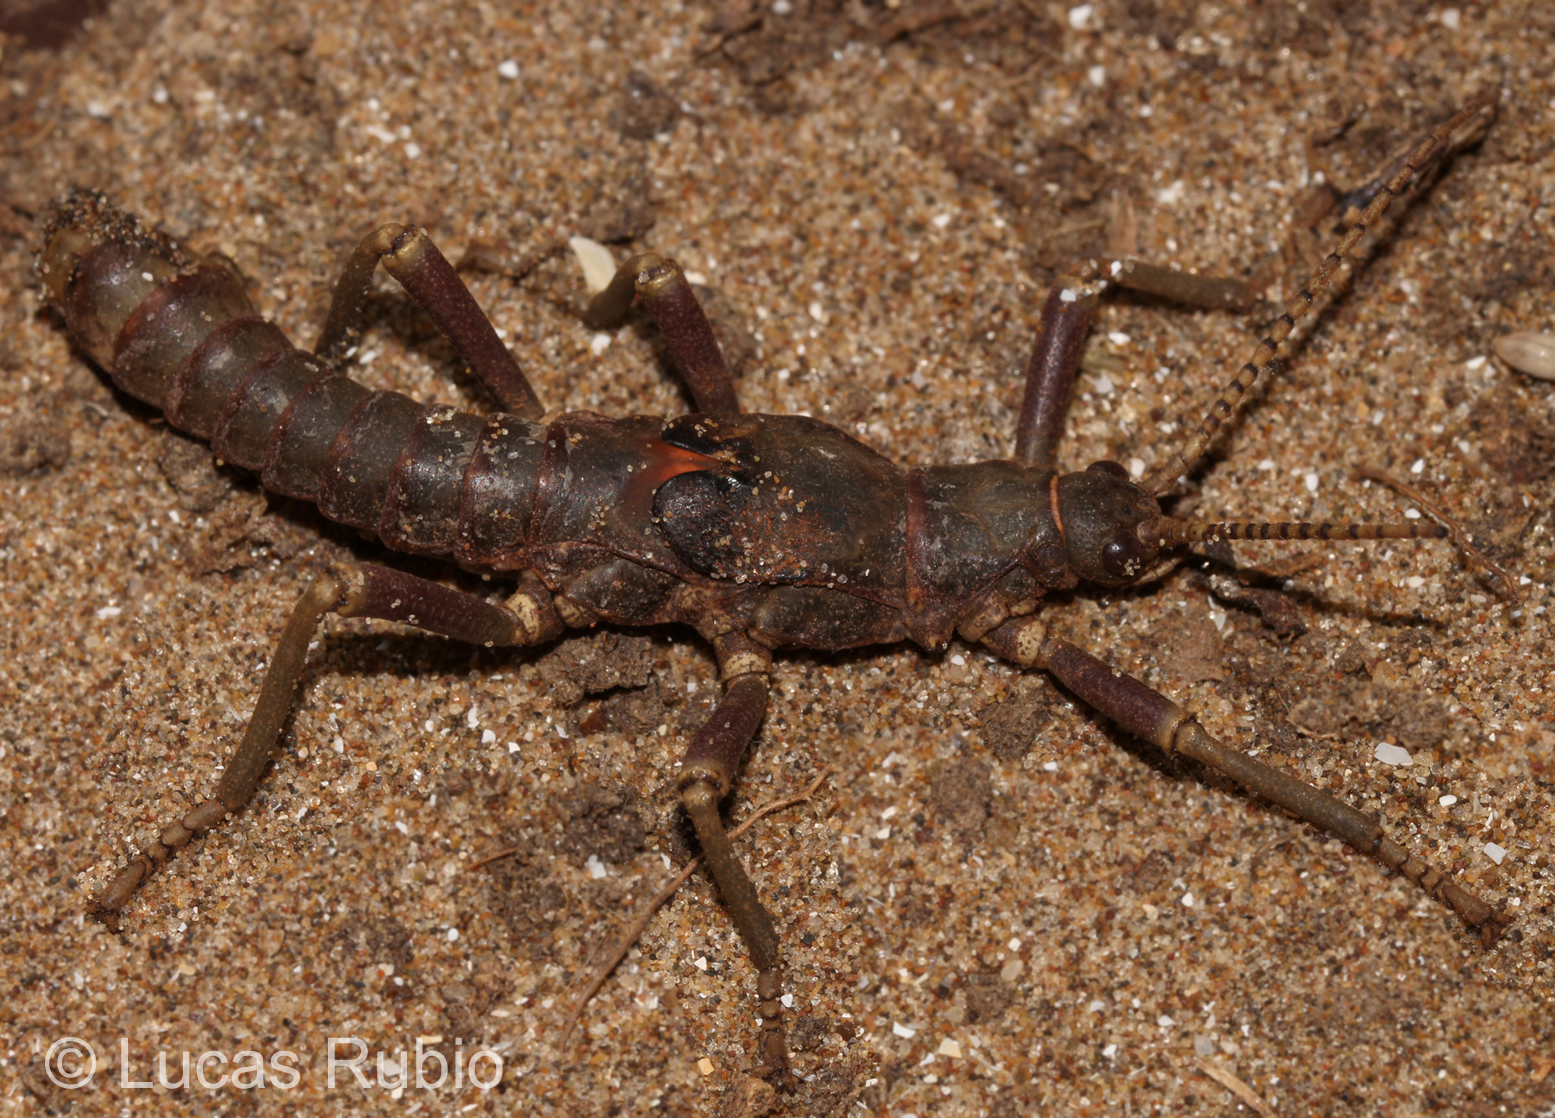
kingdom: Animalia
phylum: Arthropoda
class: Insecta
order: Phasmida
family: Agathemeridae
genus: Agathemera
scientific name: Agathemera luteola
